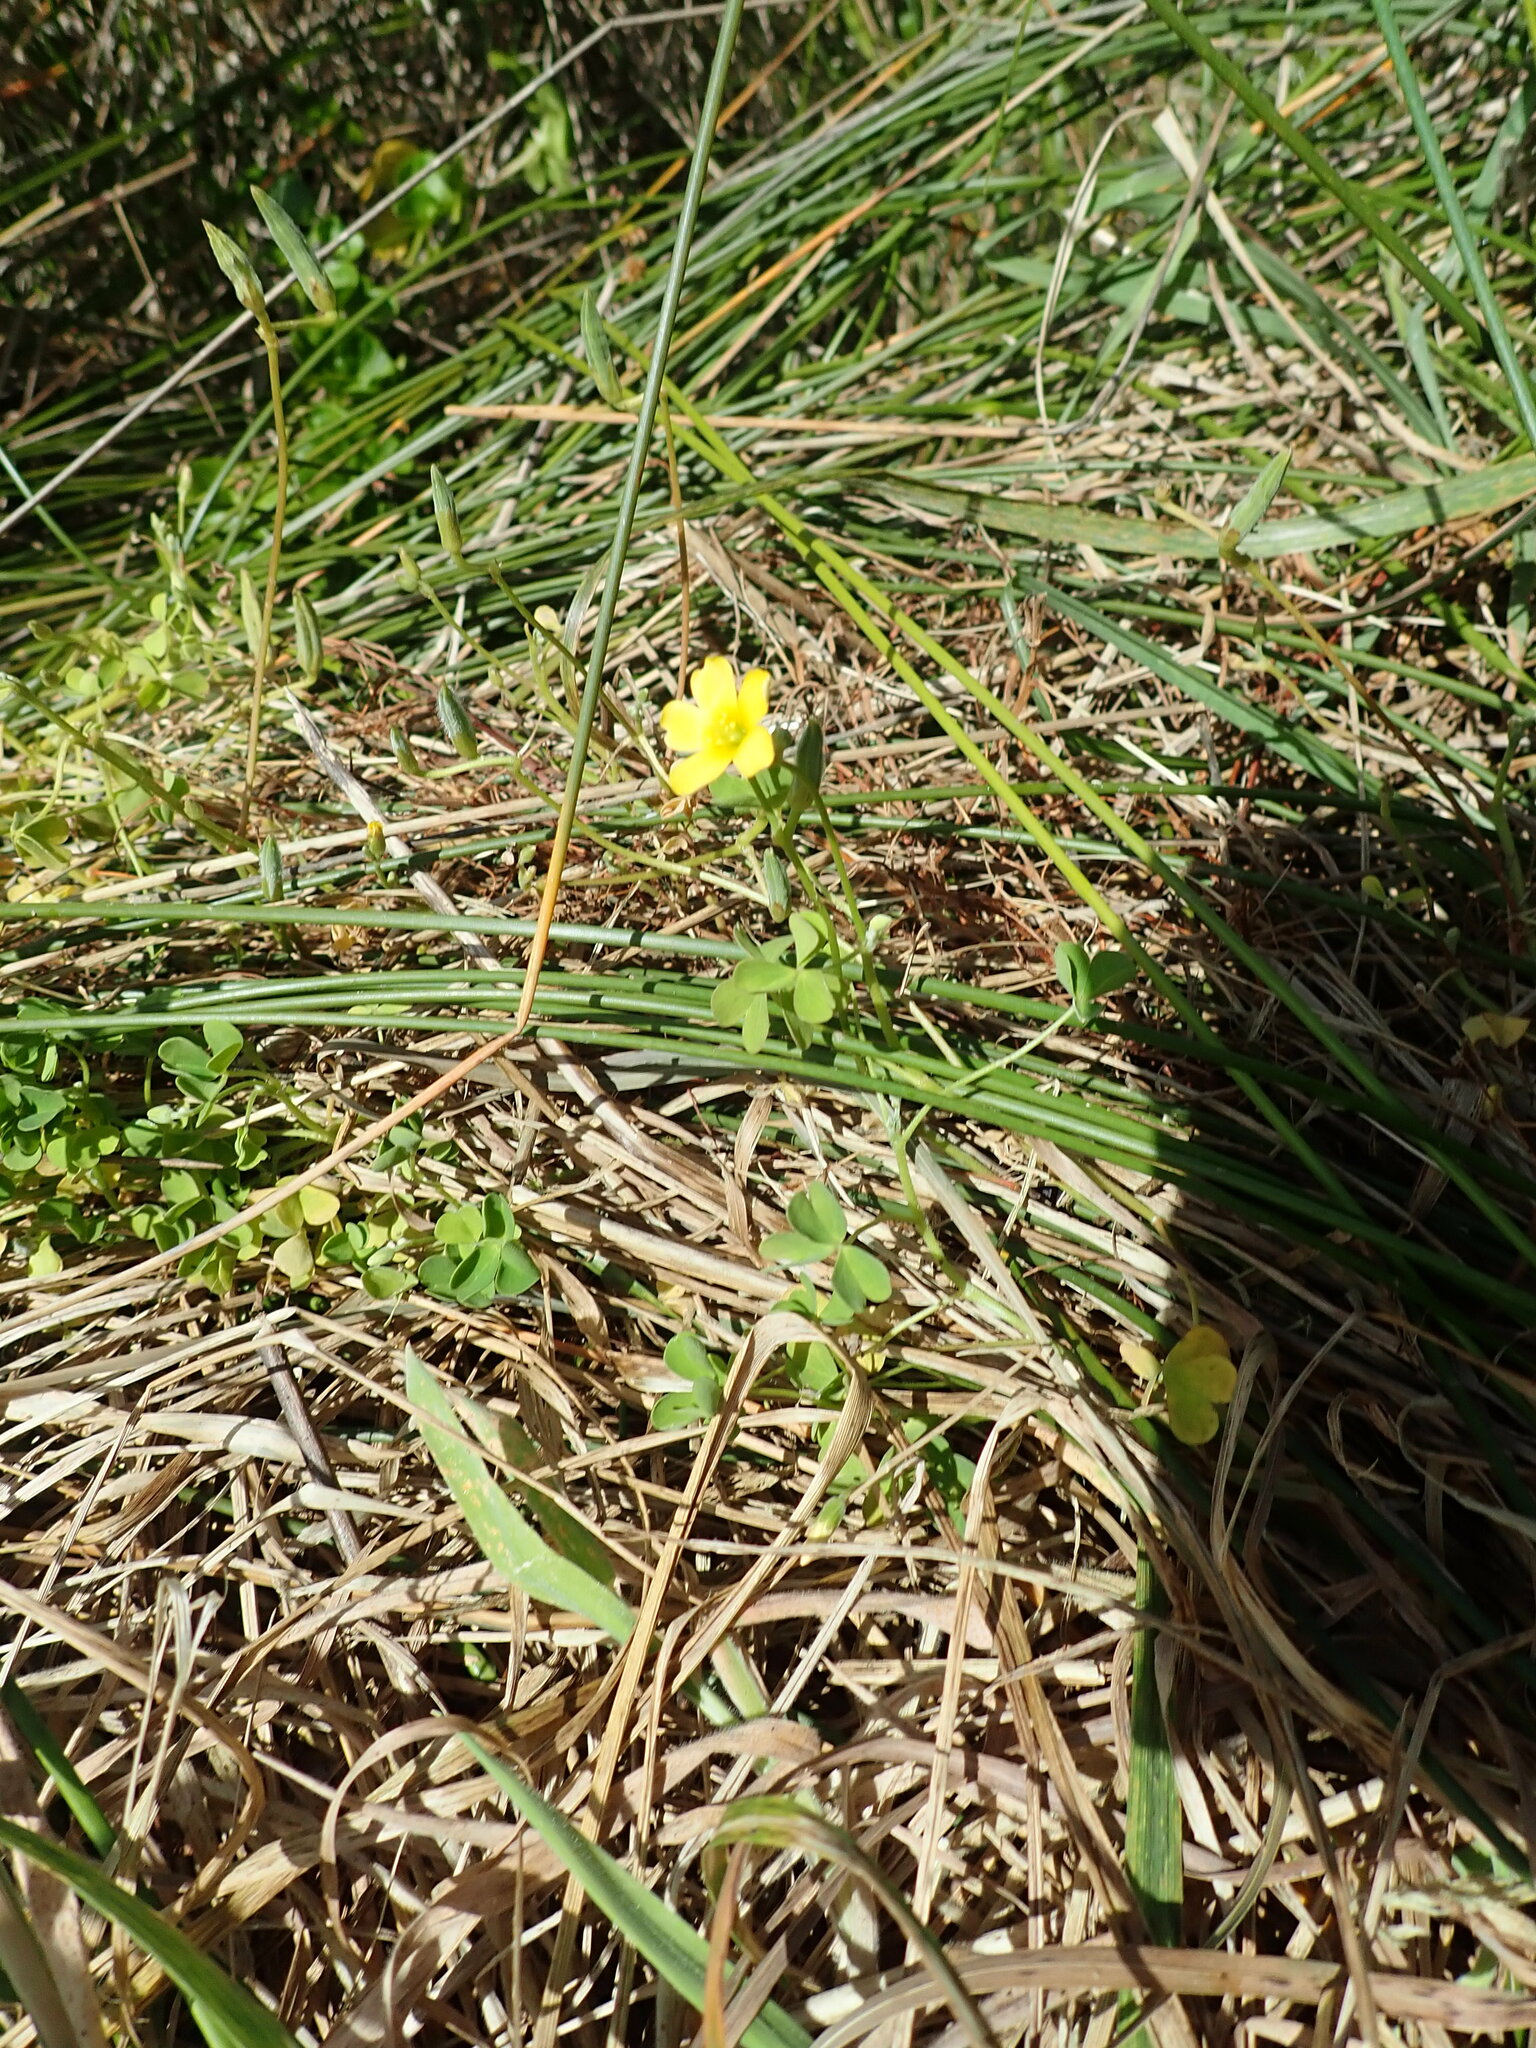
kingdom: Plantae
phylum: Tracheophyta
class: Magnoliopsida
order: Oxalidales
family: Oxalidaceae
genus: Oxalis
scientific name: Oxalis pes-caprae
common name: Bermuda-buttercup
